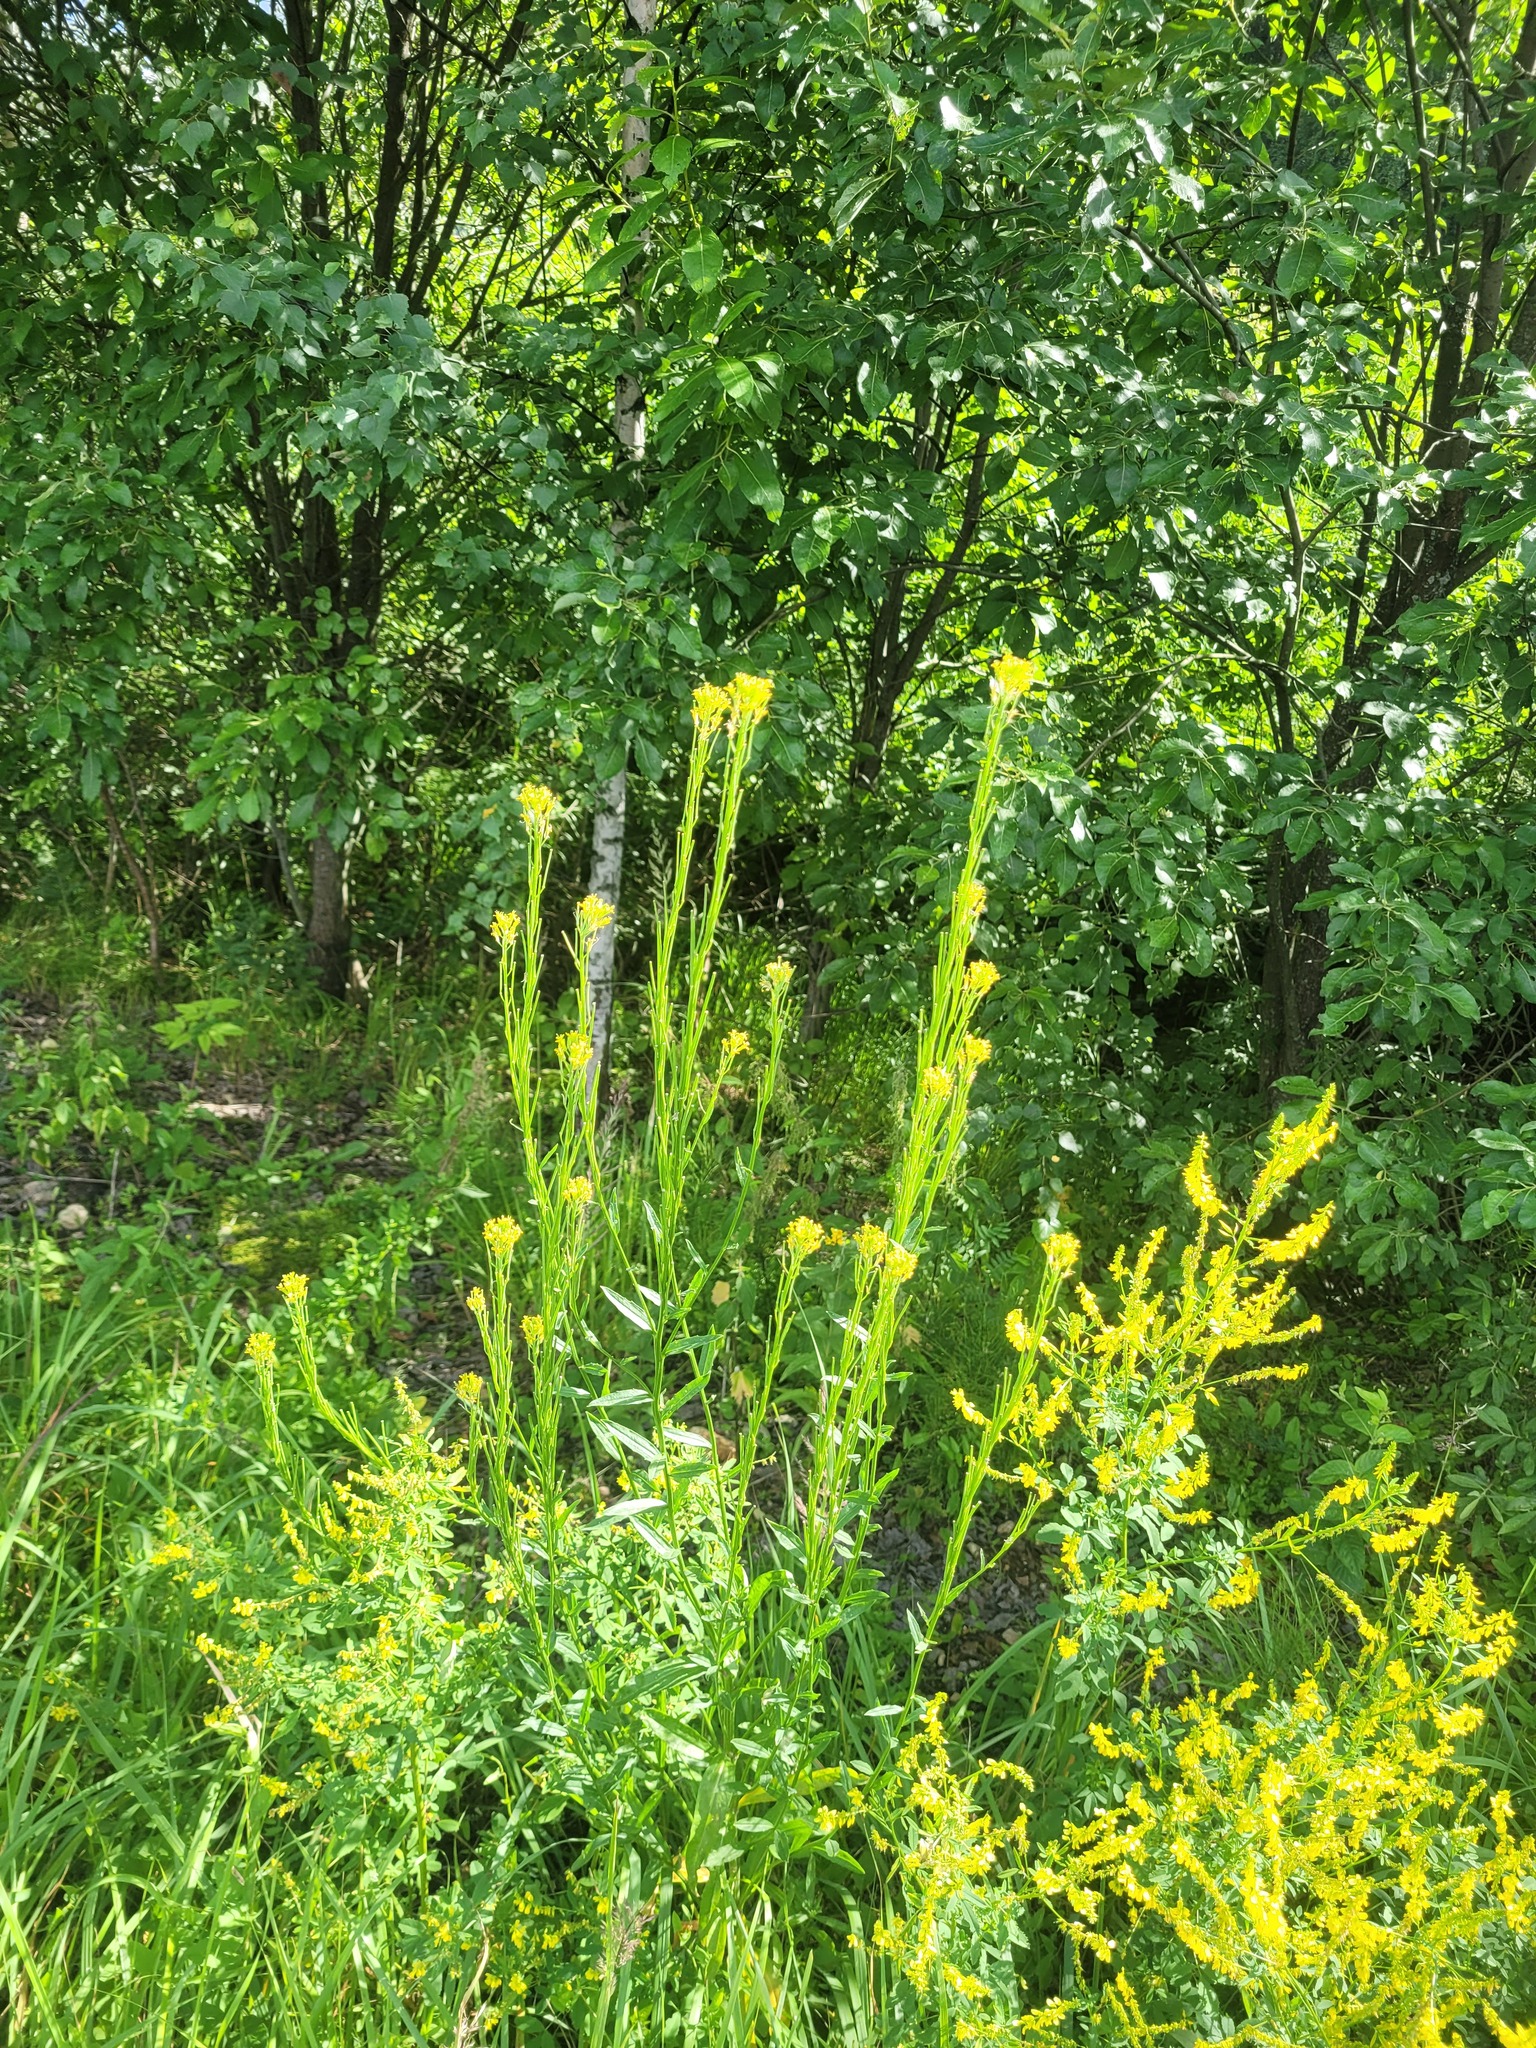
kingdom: Plantae
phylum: Tracheophyta
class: Magnoliopsida
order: Brassicales
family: Brassicaceae
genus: Erysimum
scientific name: Erysimum hieraciifolium
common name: European wallflower
